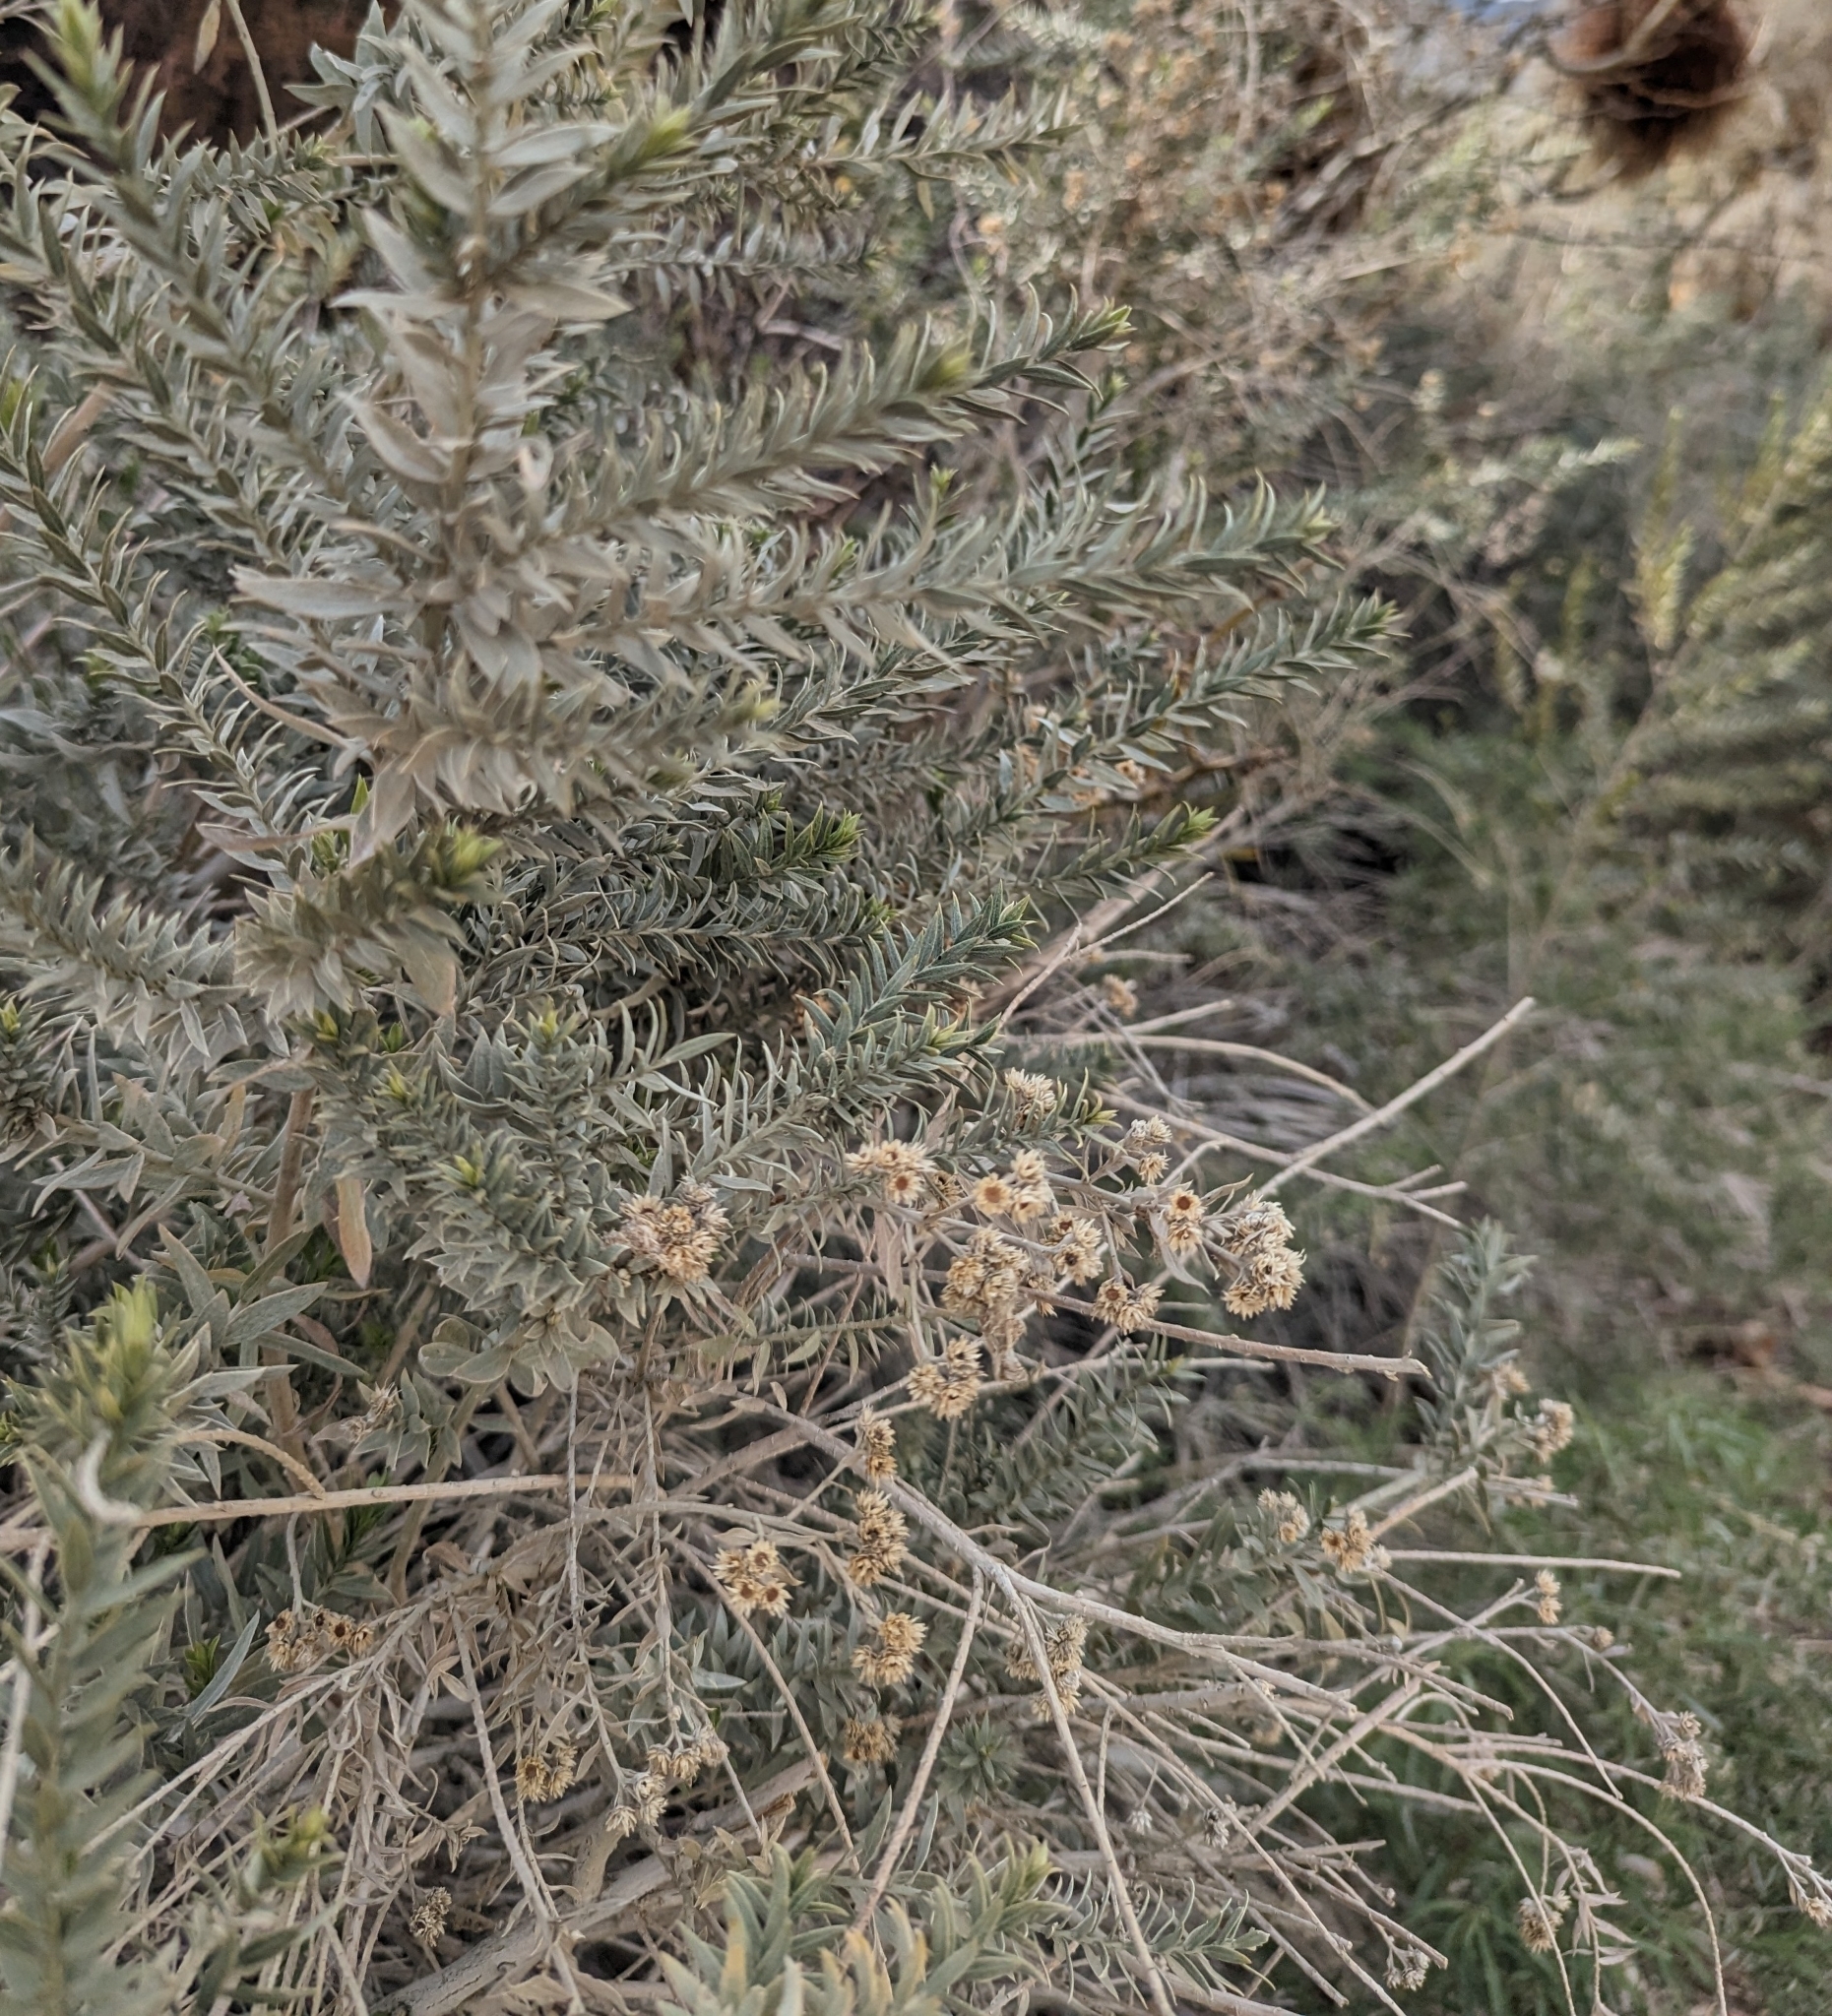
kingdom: Plantae
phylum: Tracheophyta
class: Magnoliopsida
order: Asterales
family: Asteraceae
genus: Pluchea
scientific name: Pluchea sericea
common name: Arrow-weed
